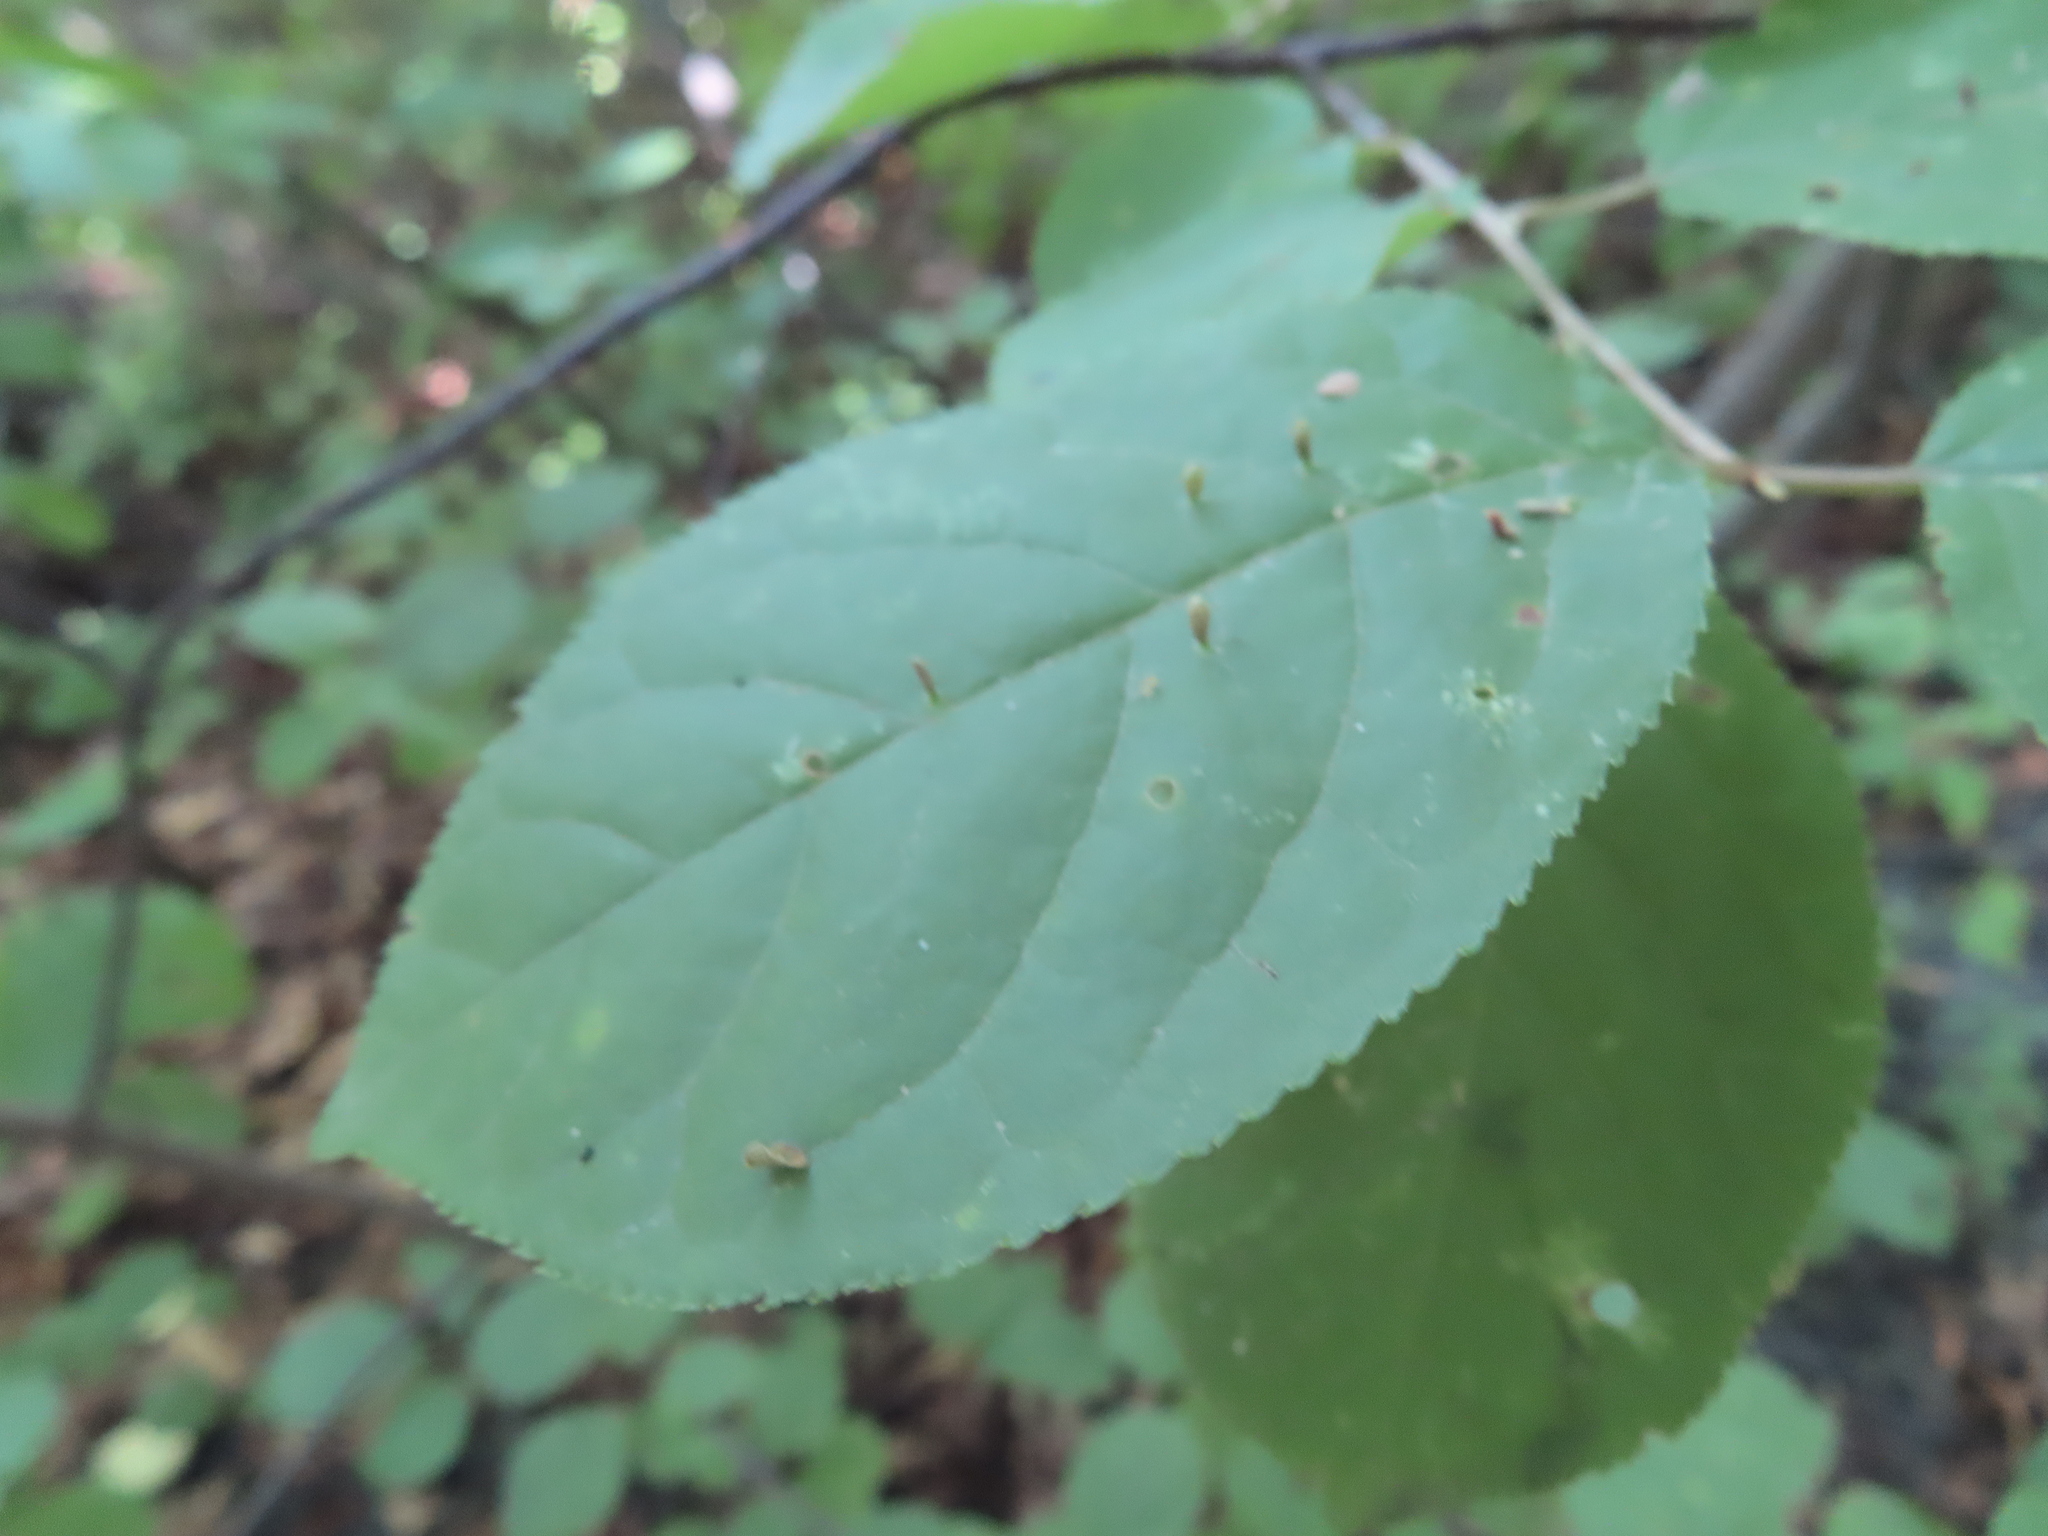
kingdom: Animalia
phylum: Arthropoda
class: Arachnida
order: Trombidiformes
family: Eriophyidae
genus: Eriophyes
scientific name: Eriophyes emarginatae
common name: Plum leaf gall mite
